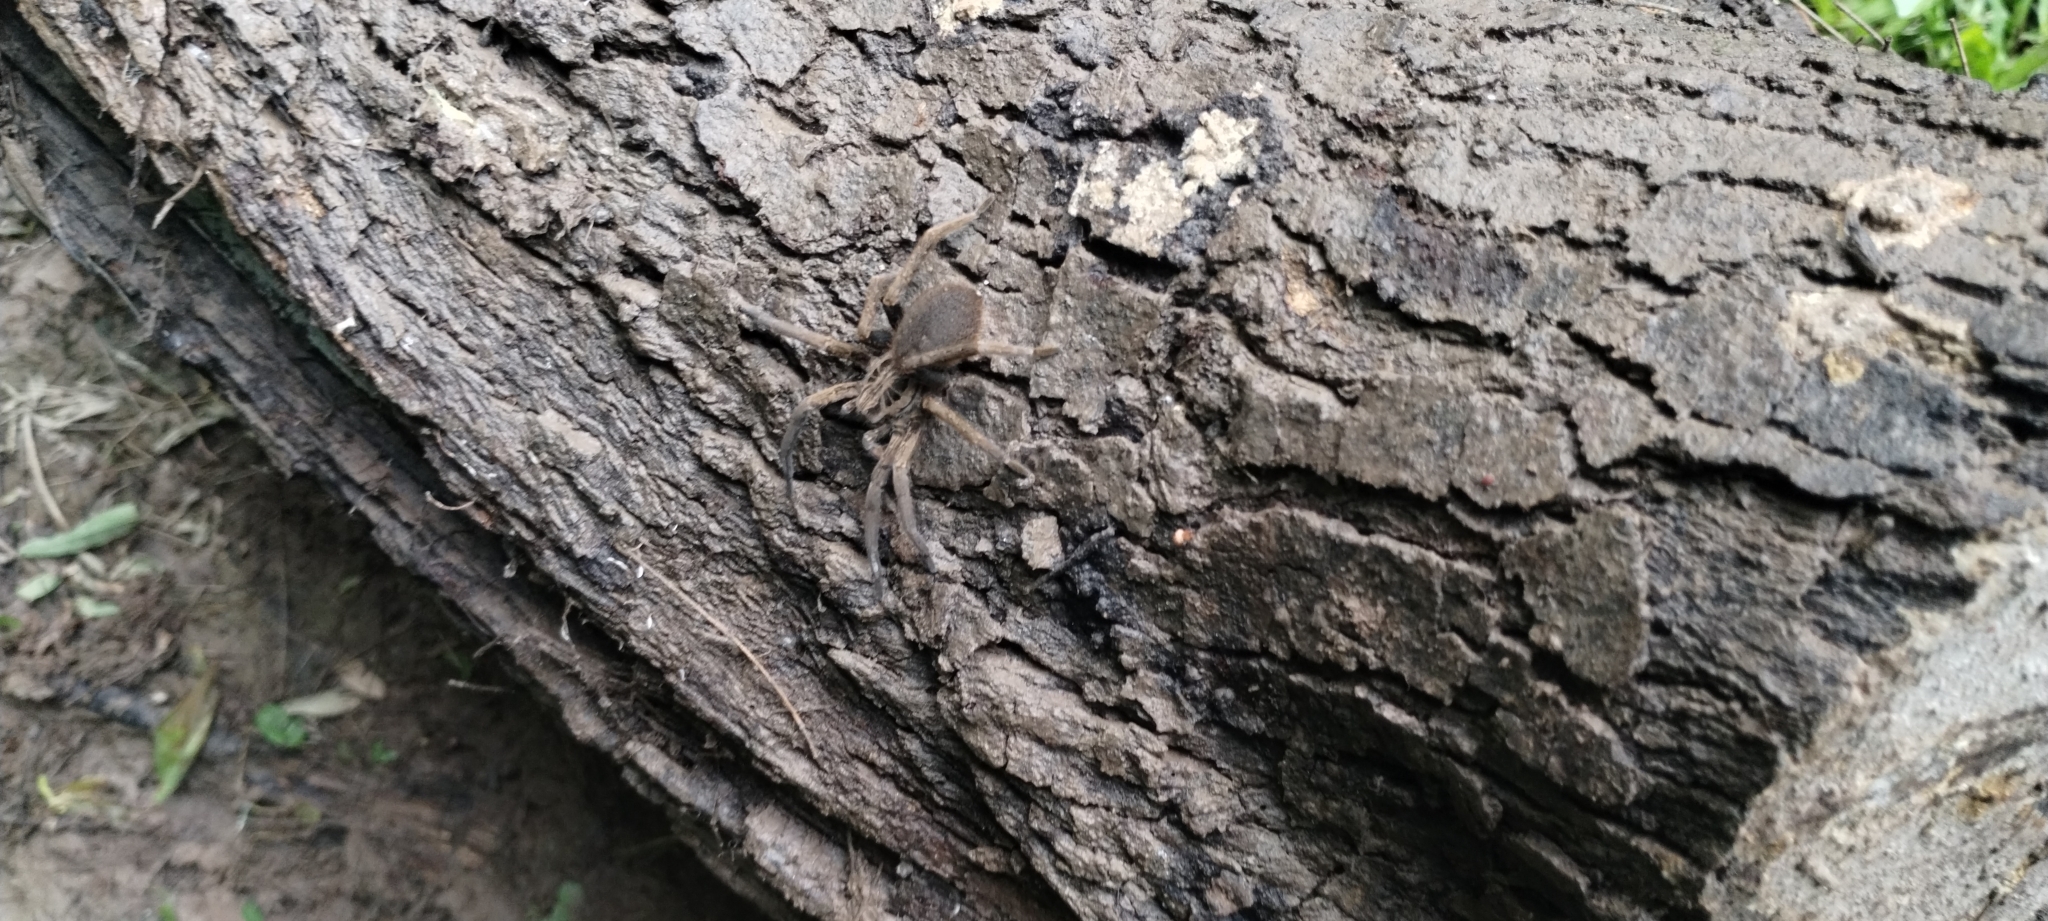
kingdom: Animalia
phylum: Arthropoda
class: Arachnida
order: Araneae
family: Ctenidae
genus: Ancylometes
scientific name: Ancylometes concolor
